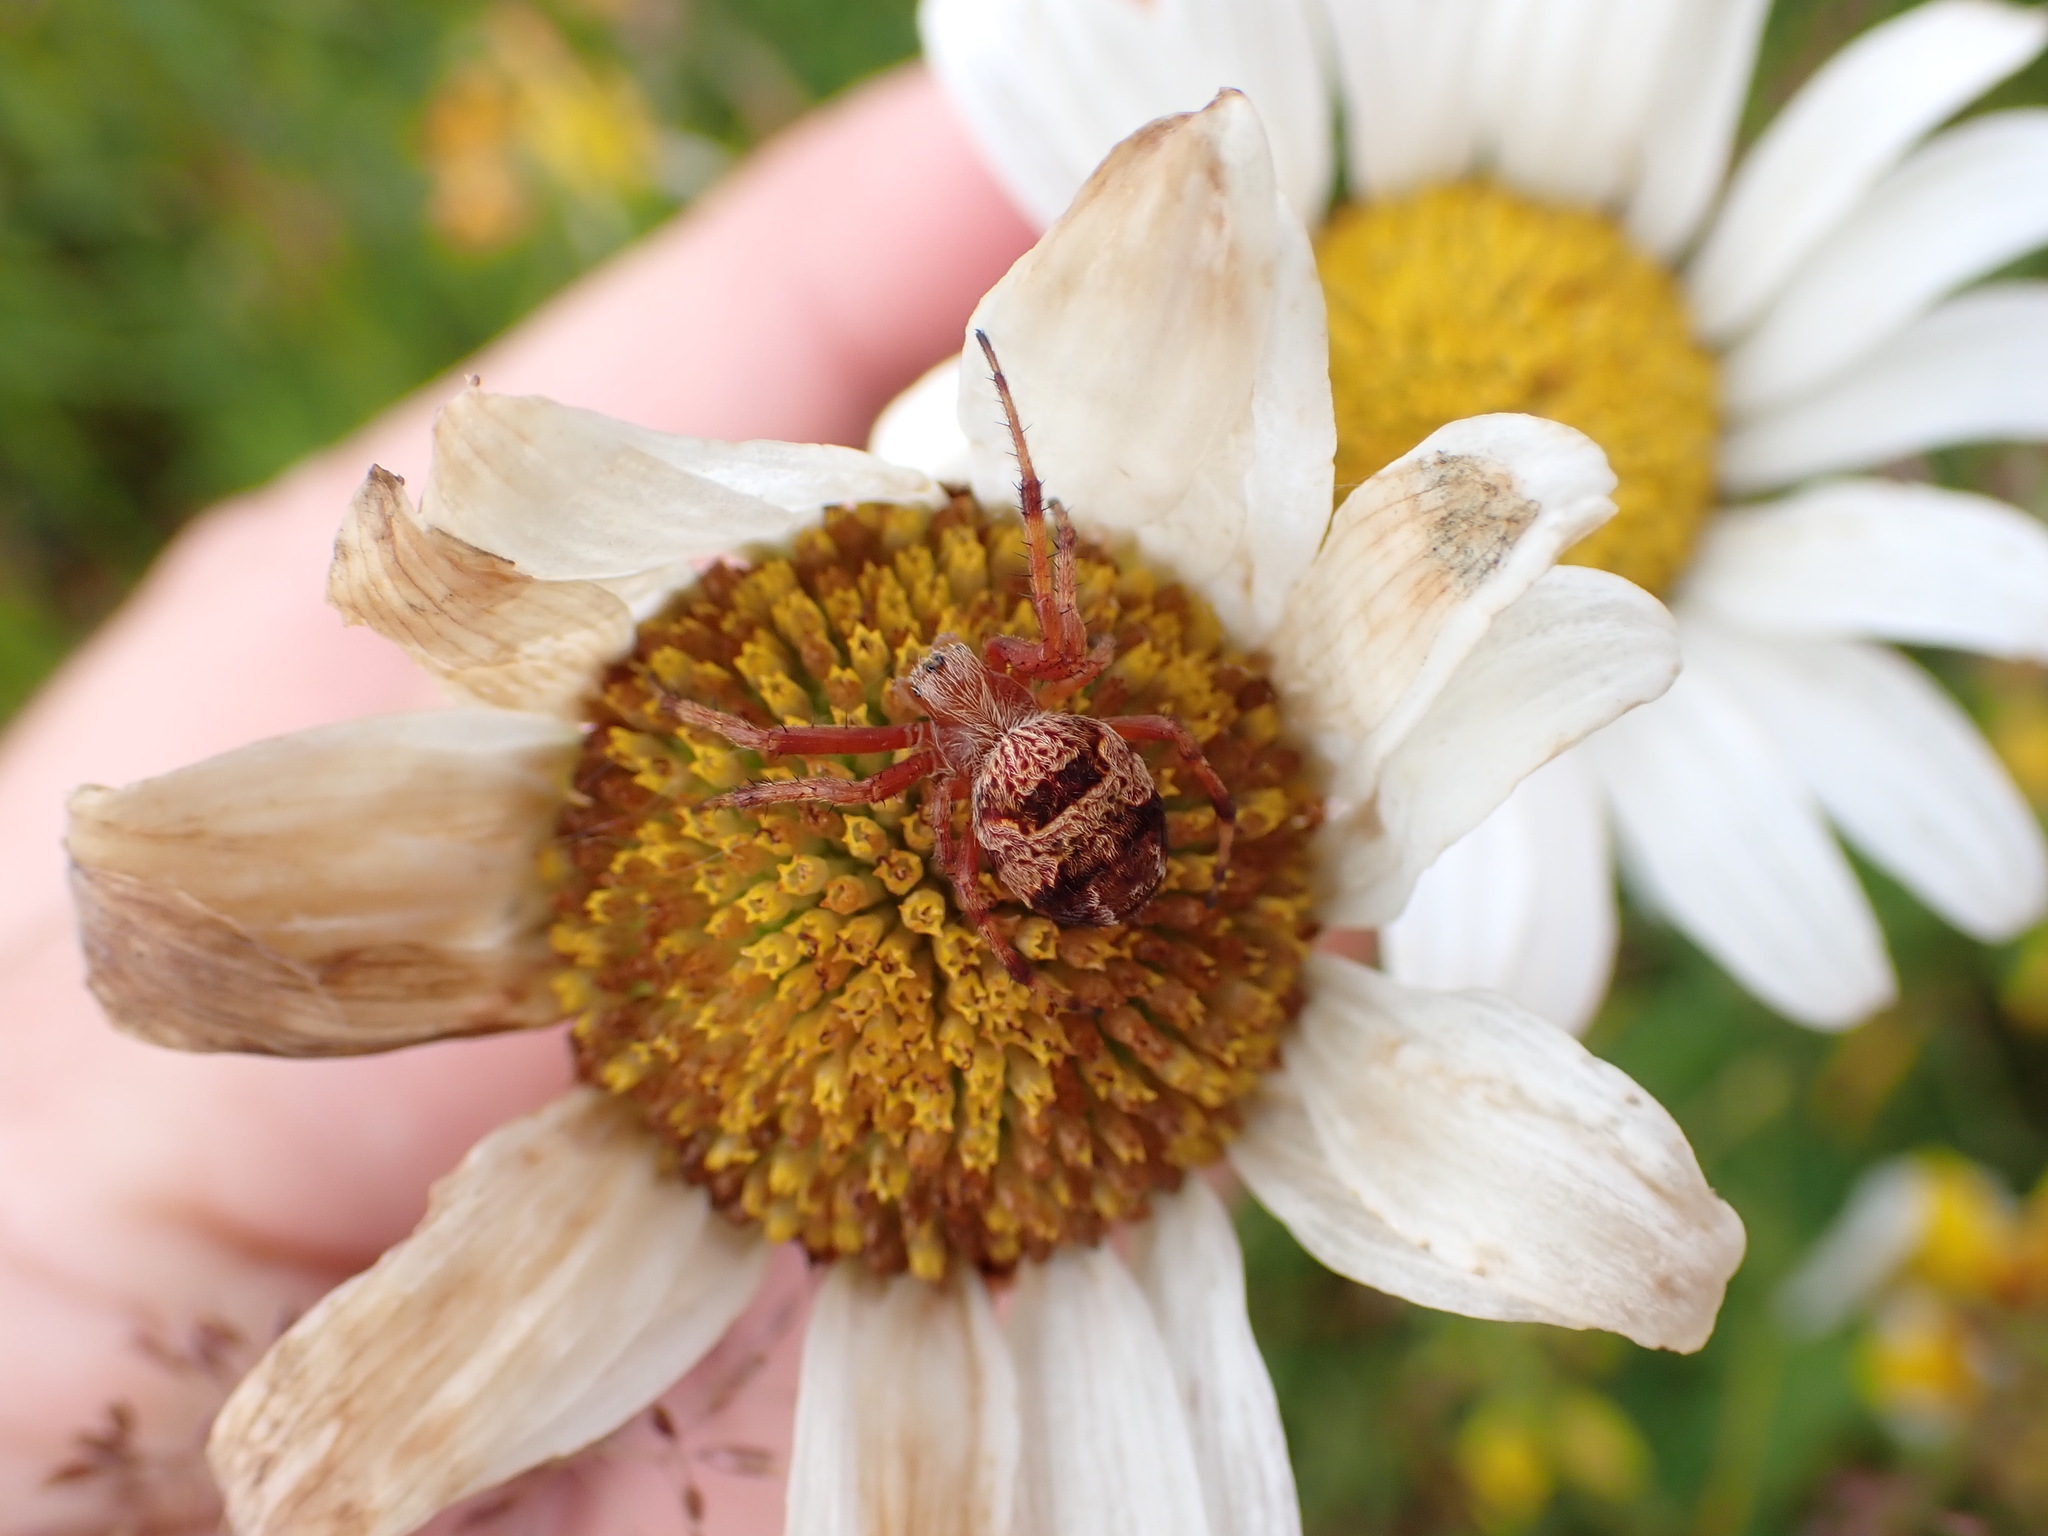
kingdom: Animalia
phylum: Arthropoda
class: Arachnida
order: Araneae
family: Araneidae
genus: Salsa
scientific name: Salsa fuliginata
